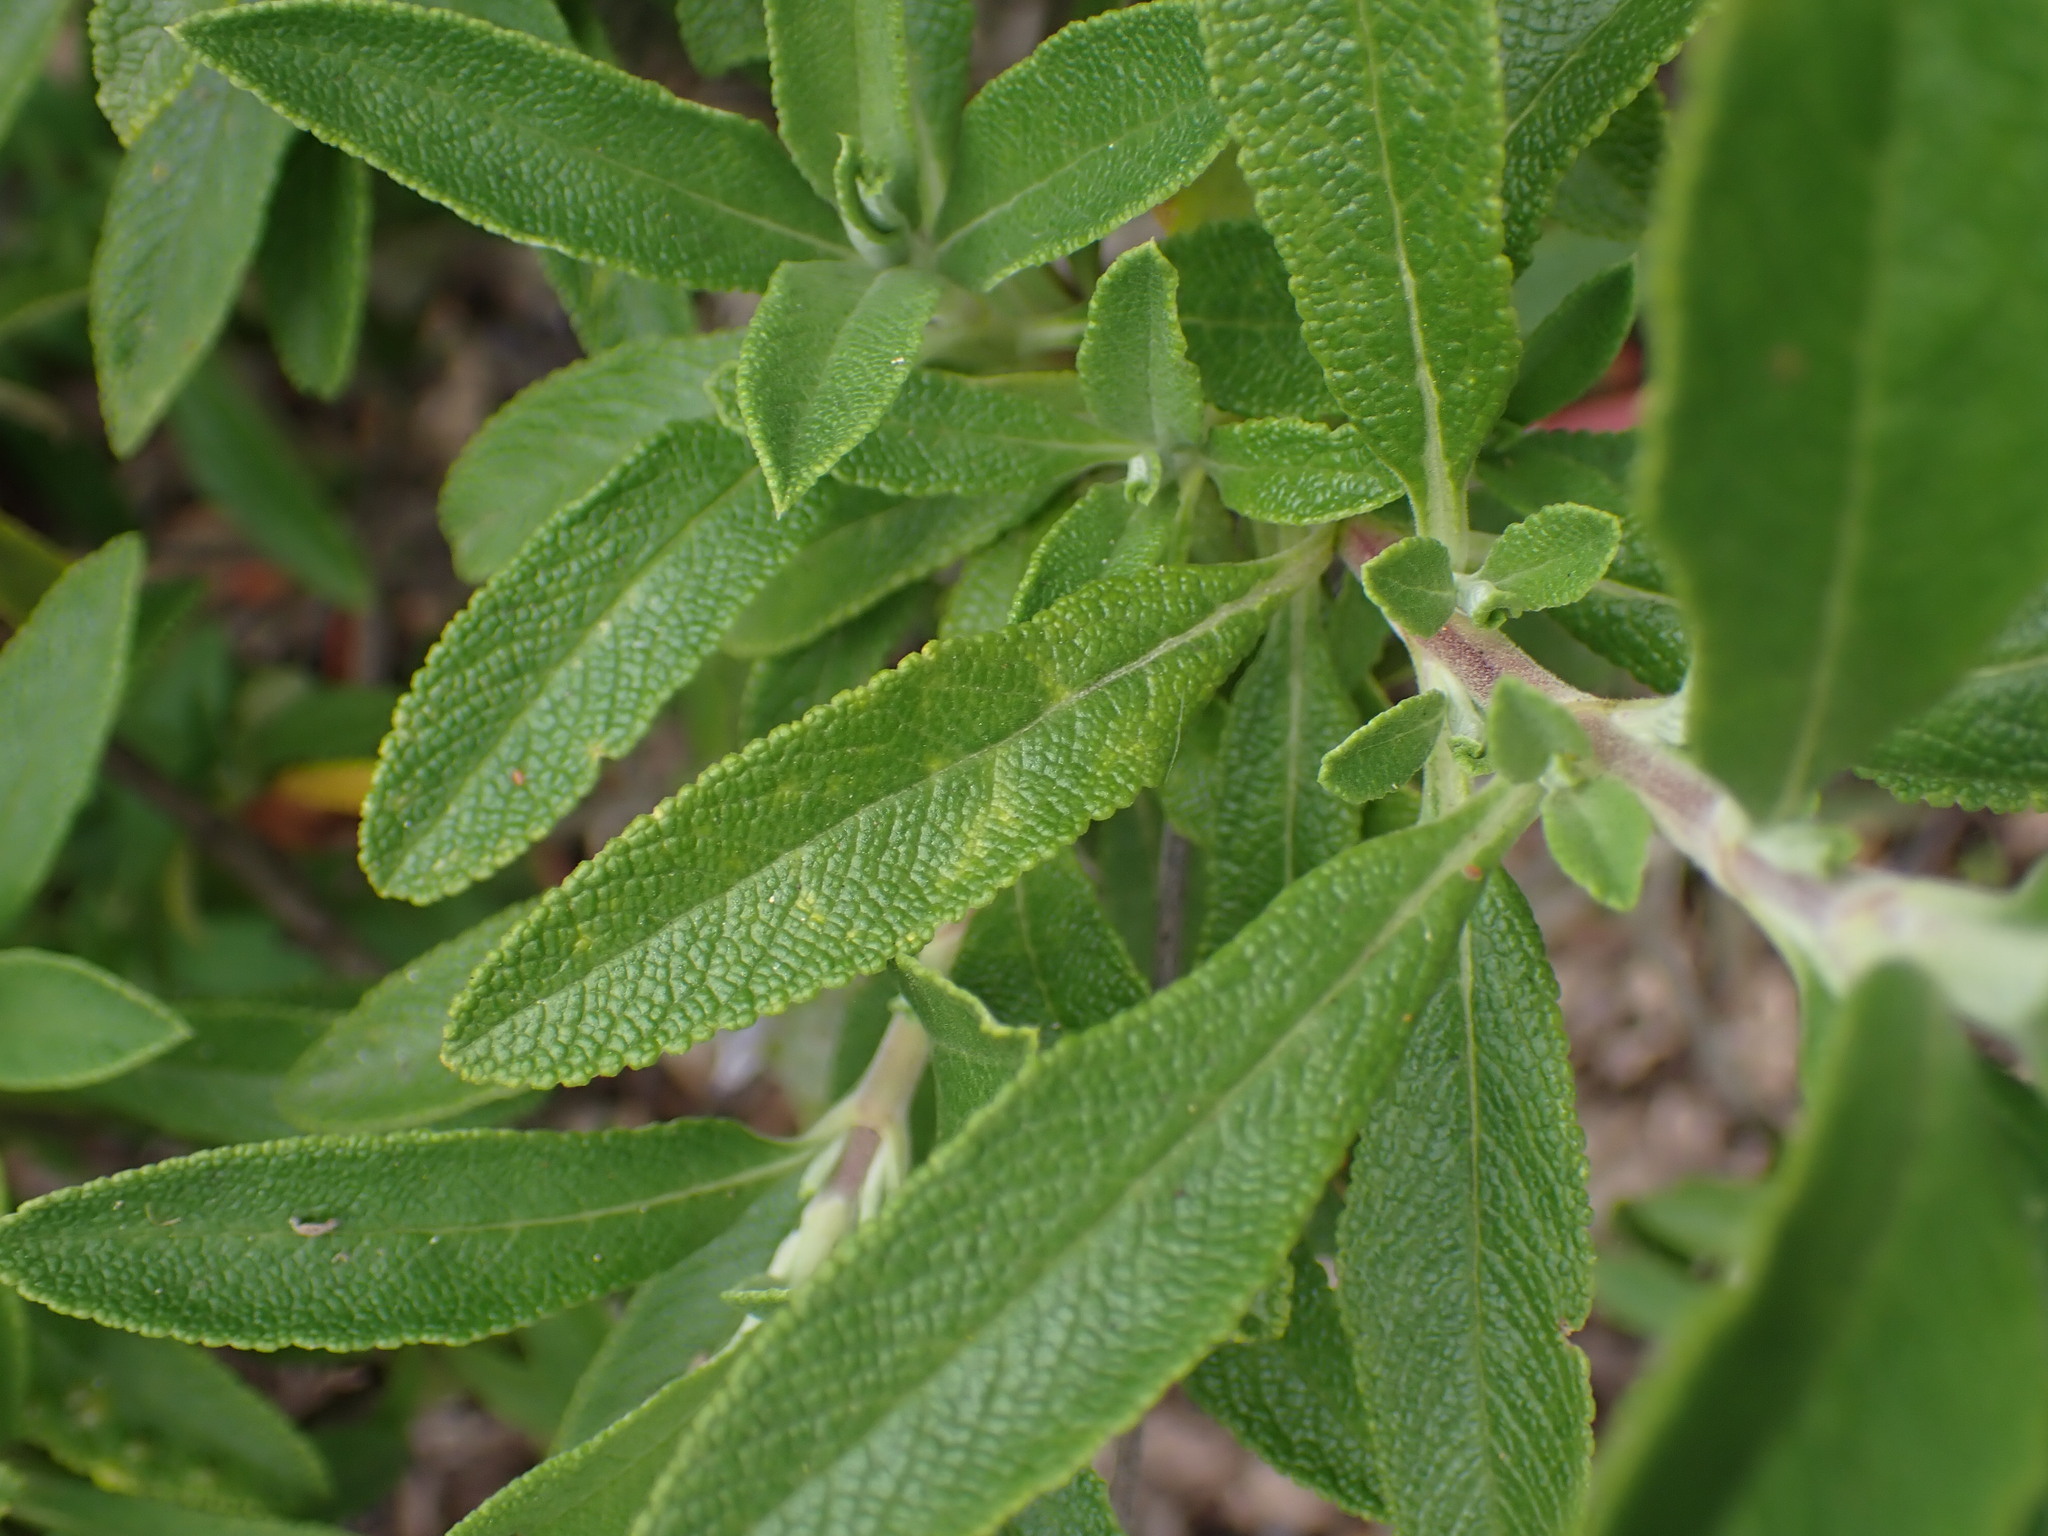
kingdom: Plantae
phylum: Tracheophyta
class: Magnoliopsida
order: Lamiales
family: Lamiaceae
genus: Salvia
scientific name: Salvia mellifera
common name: Black sage
